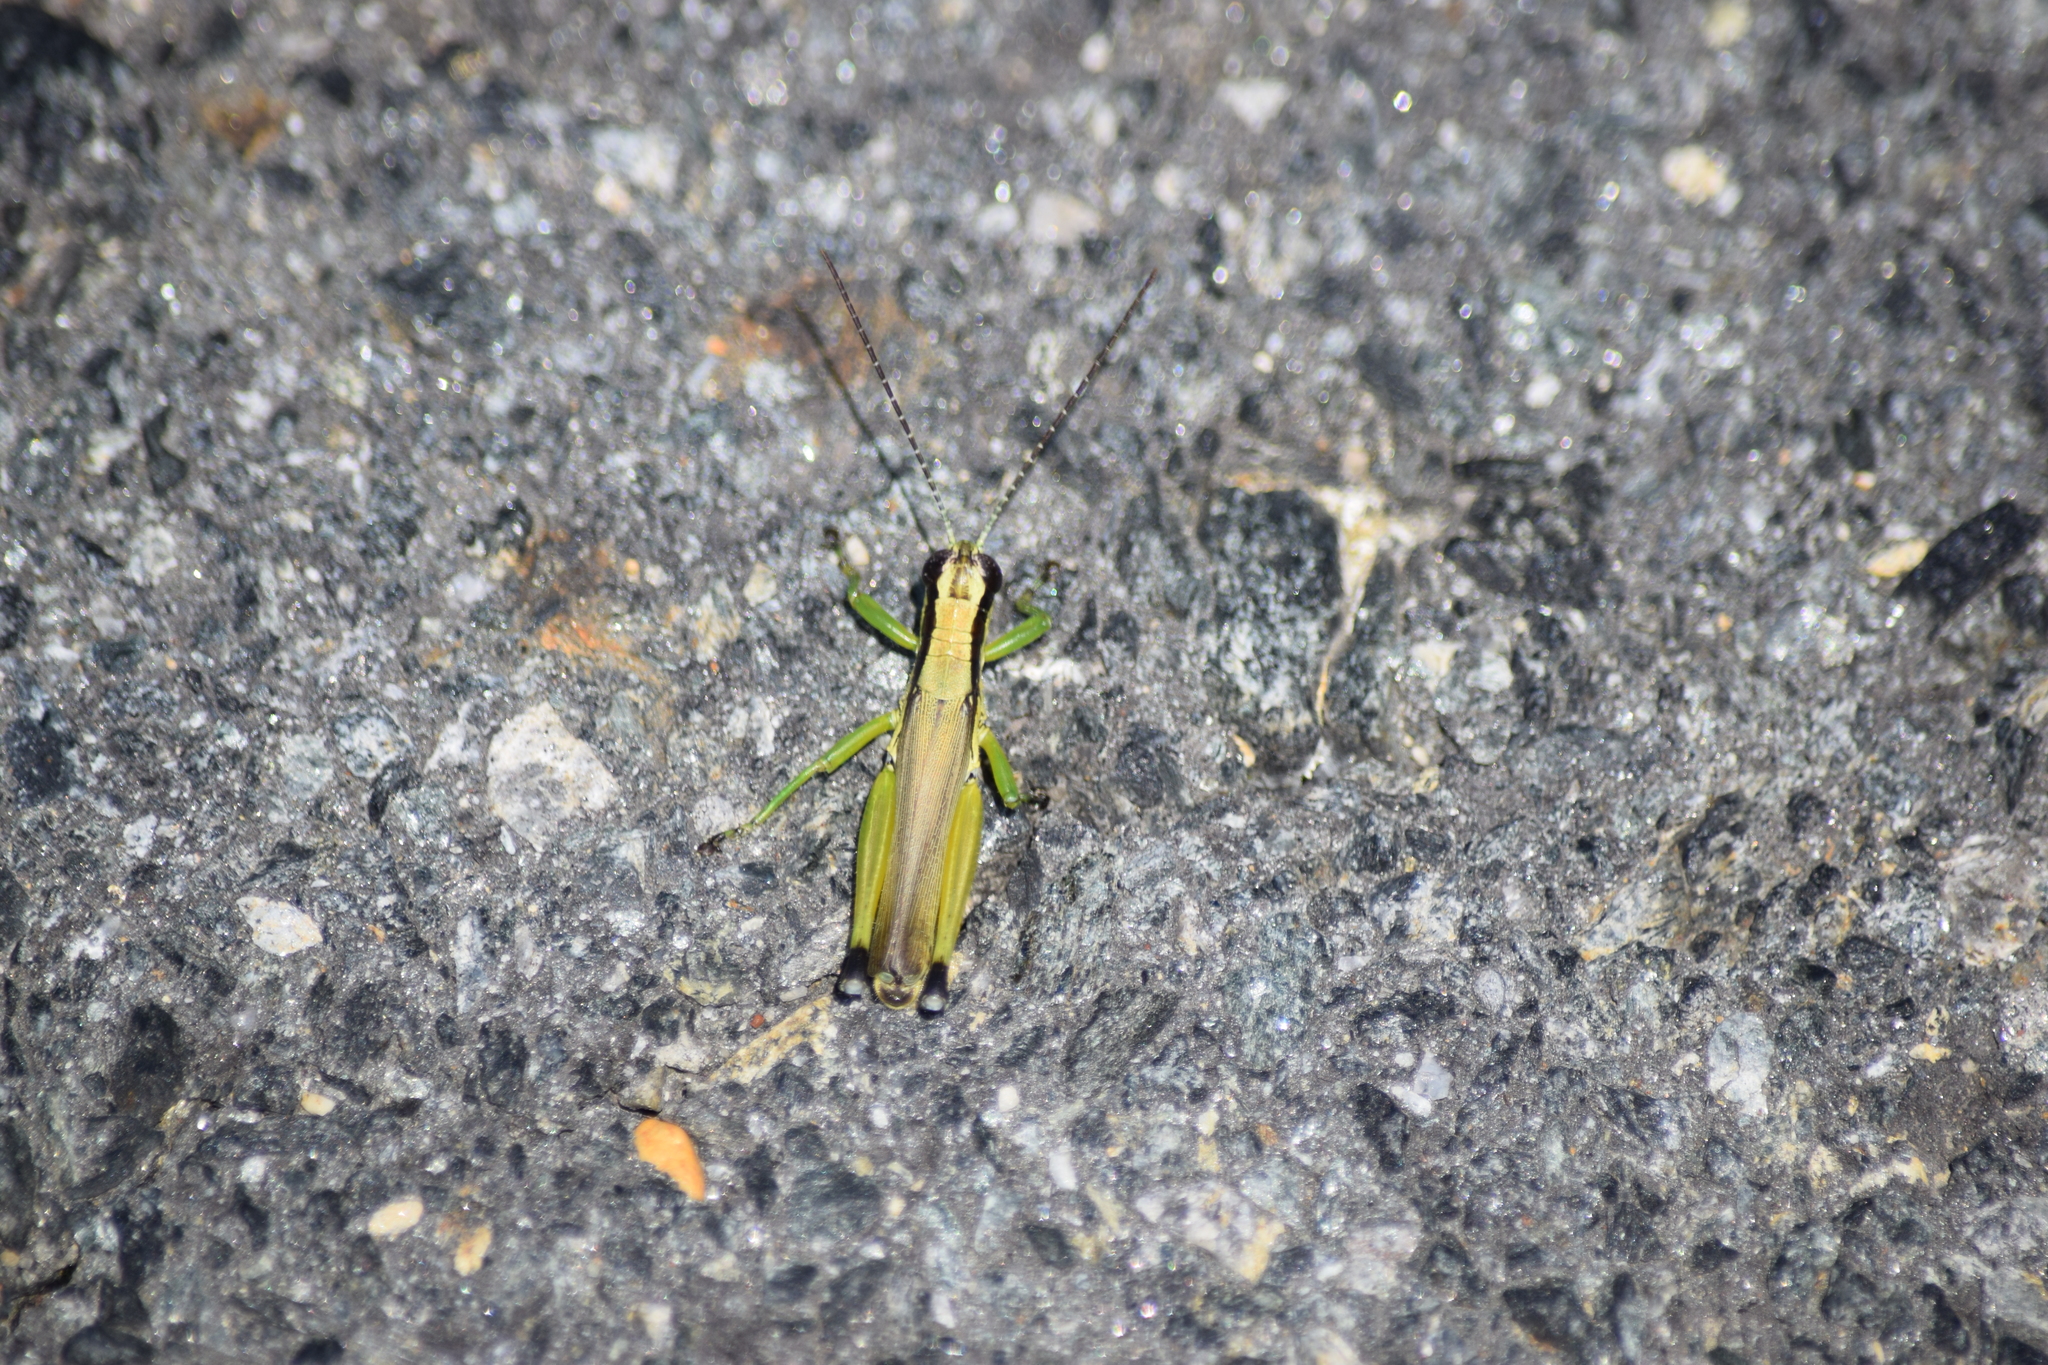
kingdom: Animalia
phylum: Arthropoda
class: Insecta
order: Orthoptera
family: Acrididae
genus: Paroxya
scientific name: Paroxya clavuligera
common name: Olive-green swamp grasshopper
